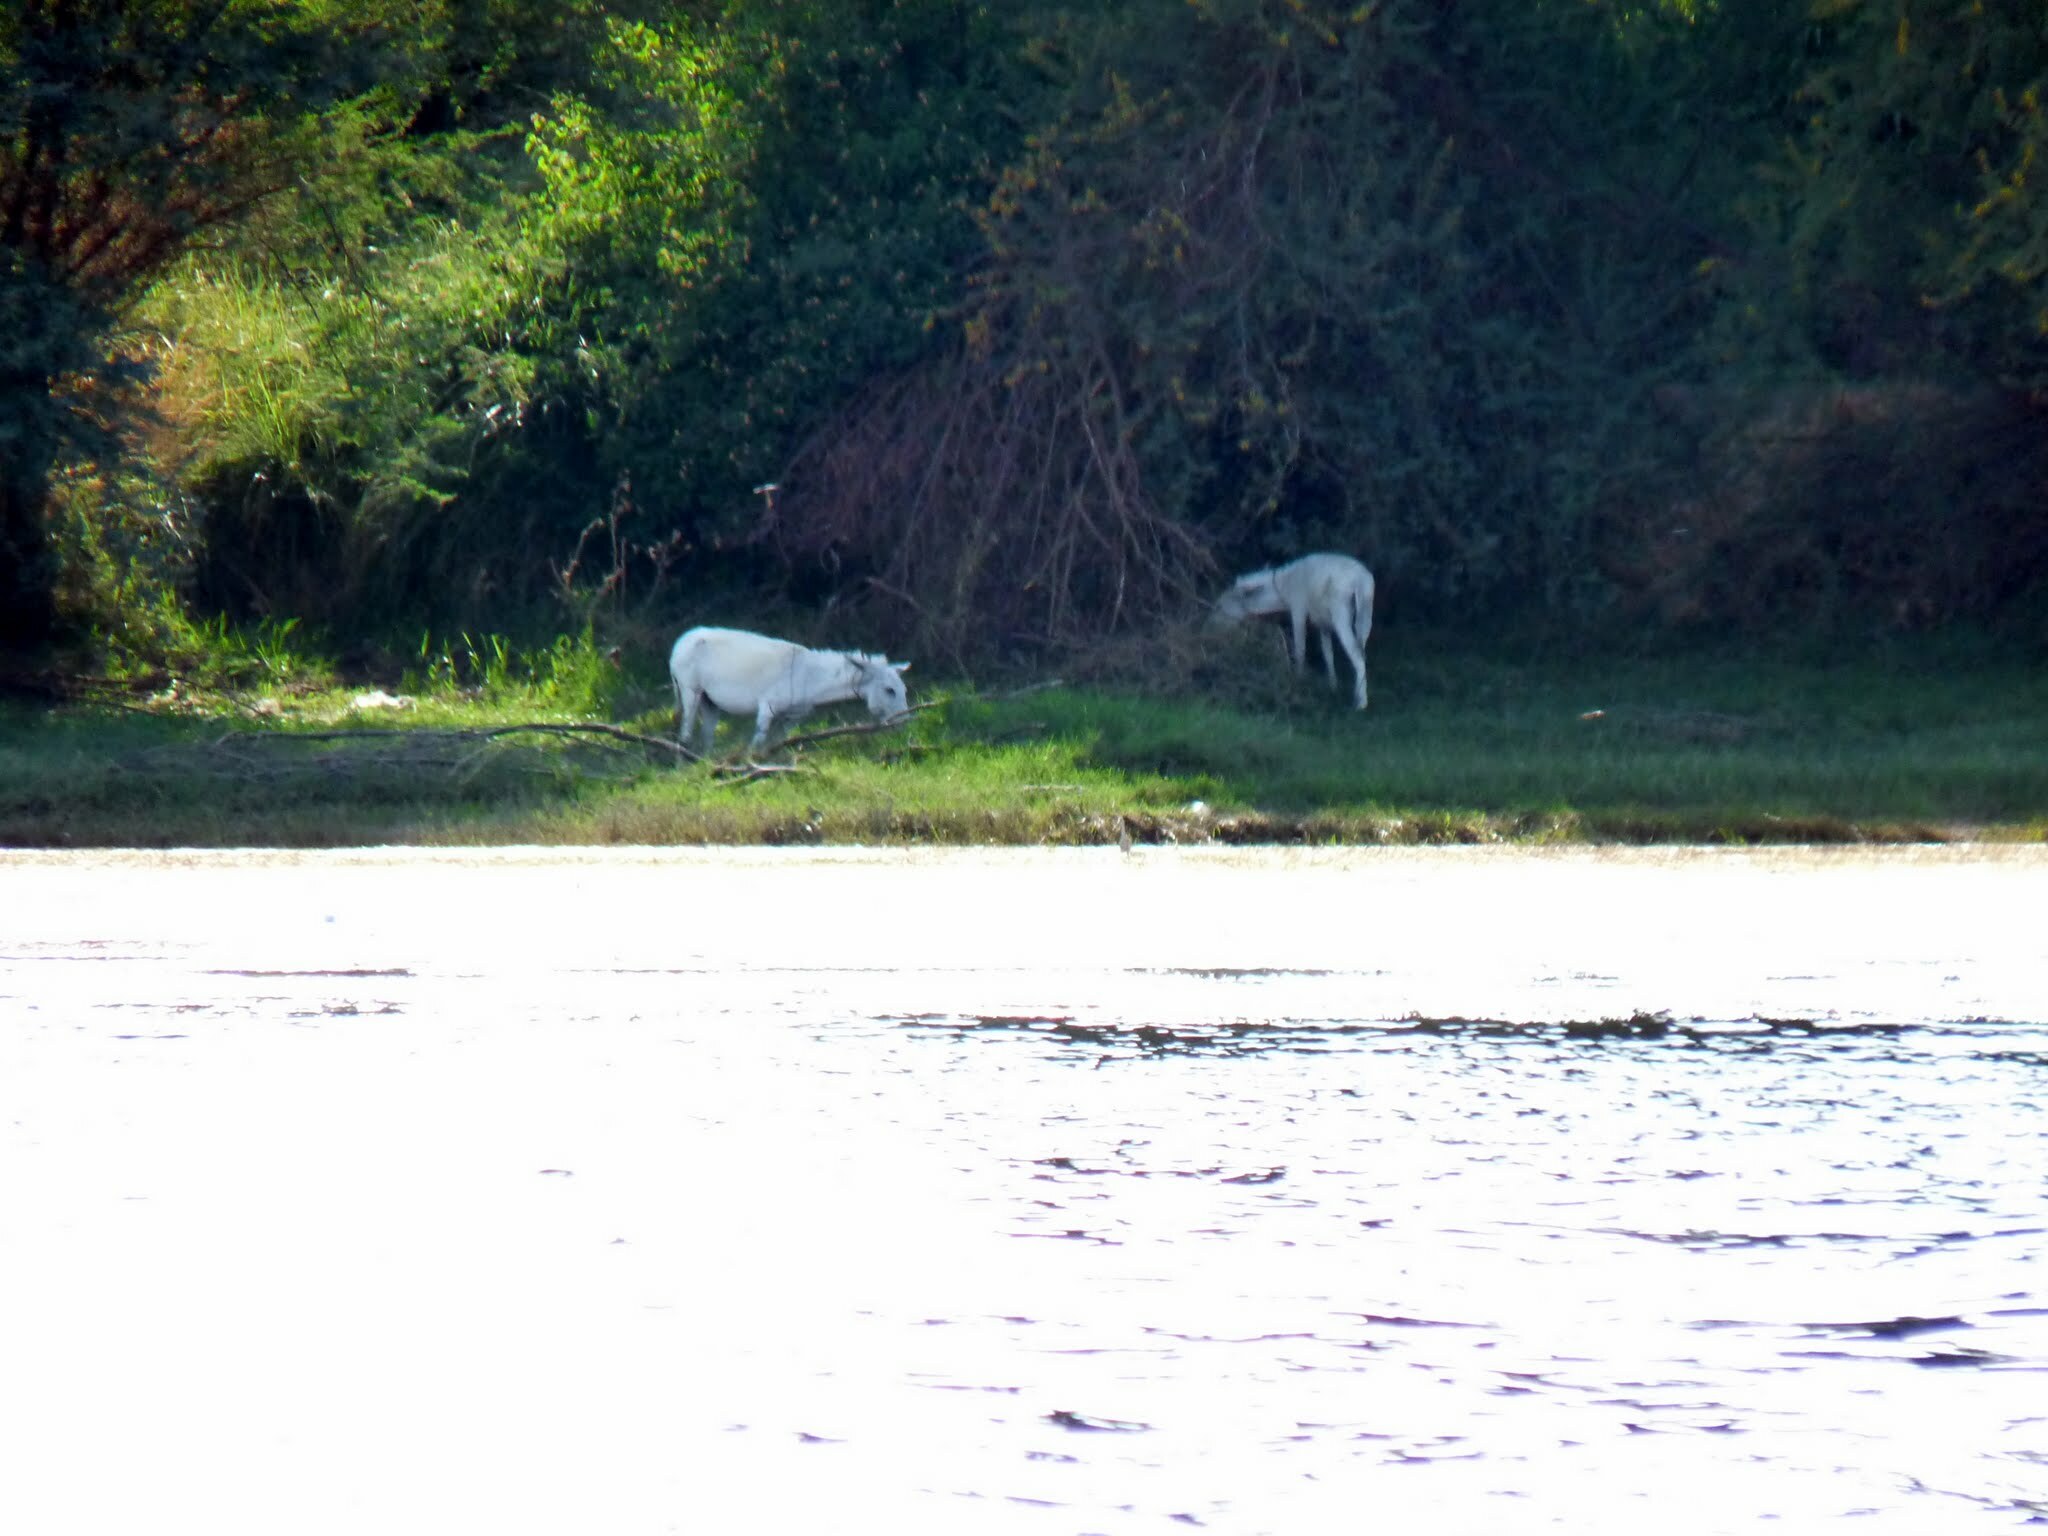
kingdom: Animalia
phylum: Chordata
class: Mammalia
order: Perissodactyla
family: Equidae
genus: Equus
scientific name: Equus asinus
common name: Ass
